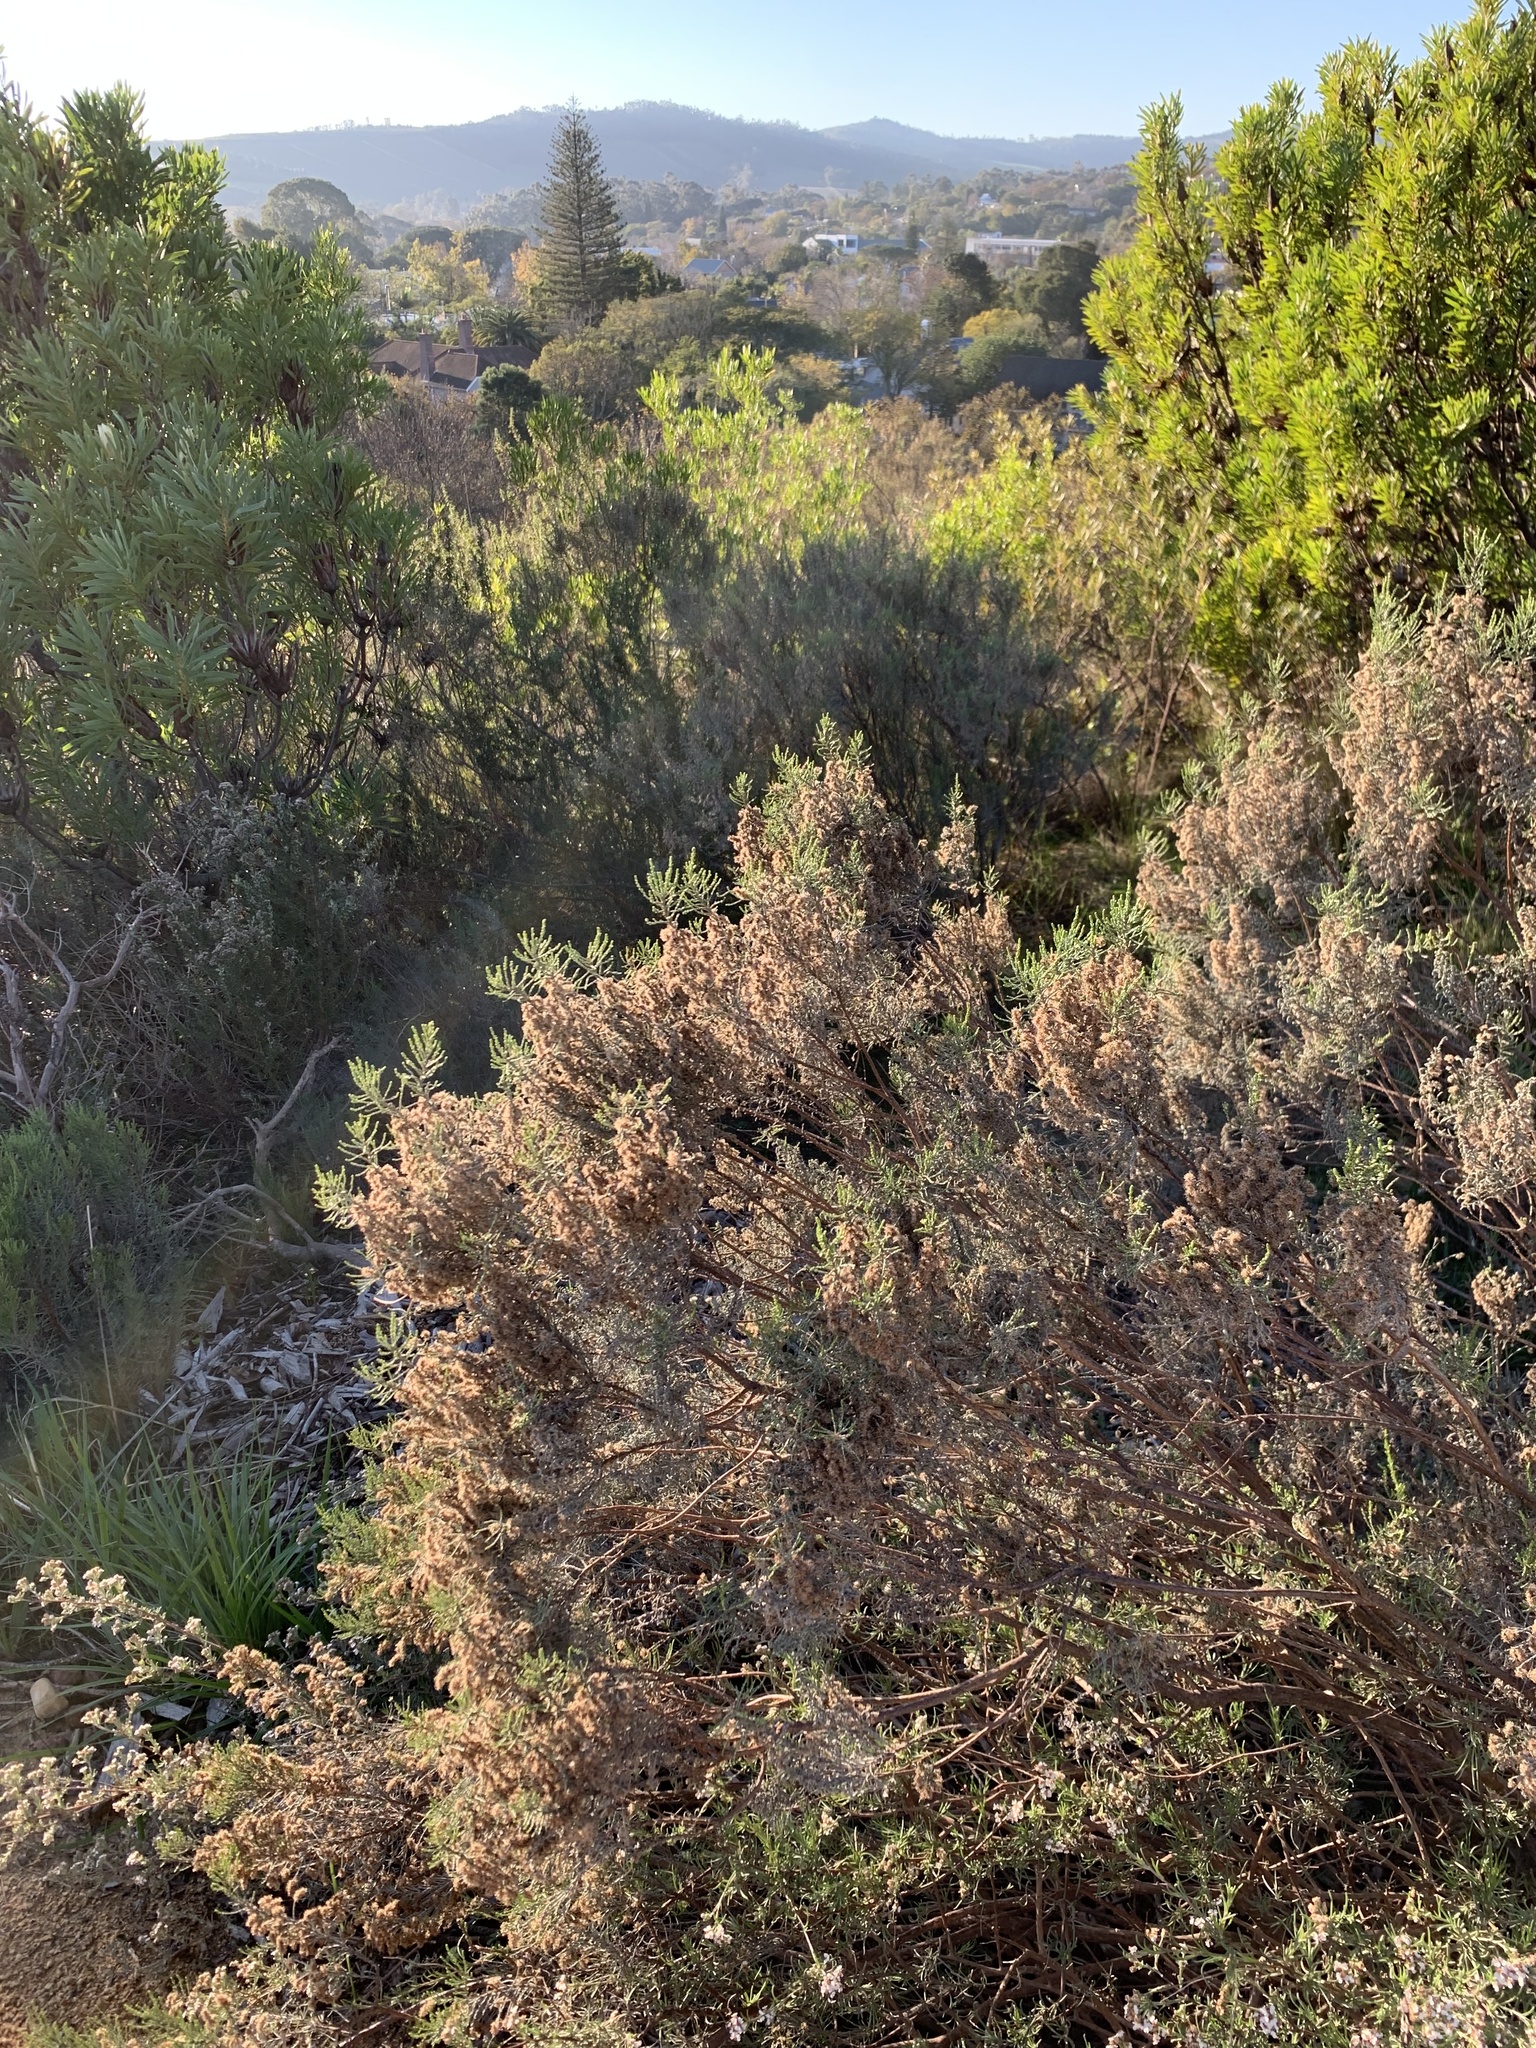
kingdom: Plantae
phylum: Tracheophyta
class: Magnoliopsida
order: Asterales
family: Asteraceae
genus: Dicerothamnus
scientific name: Dicerothamnus rhinocerotis
